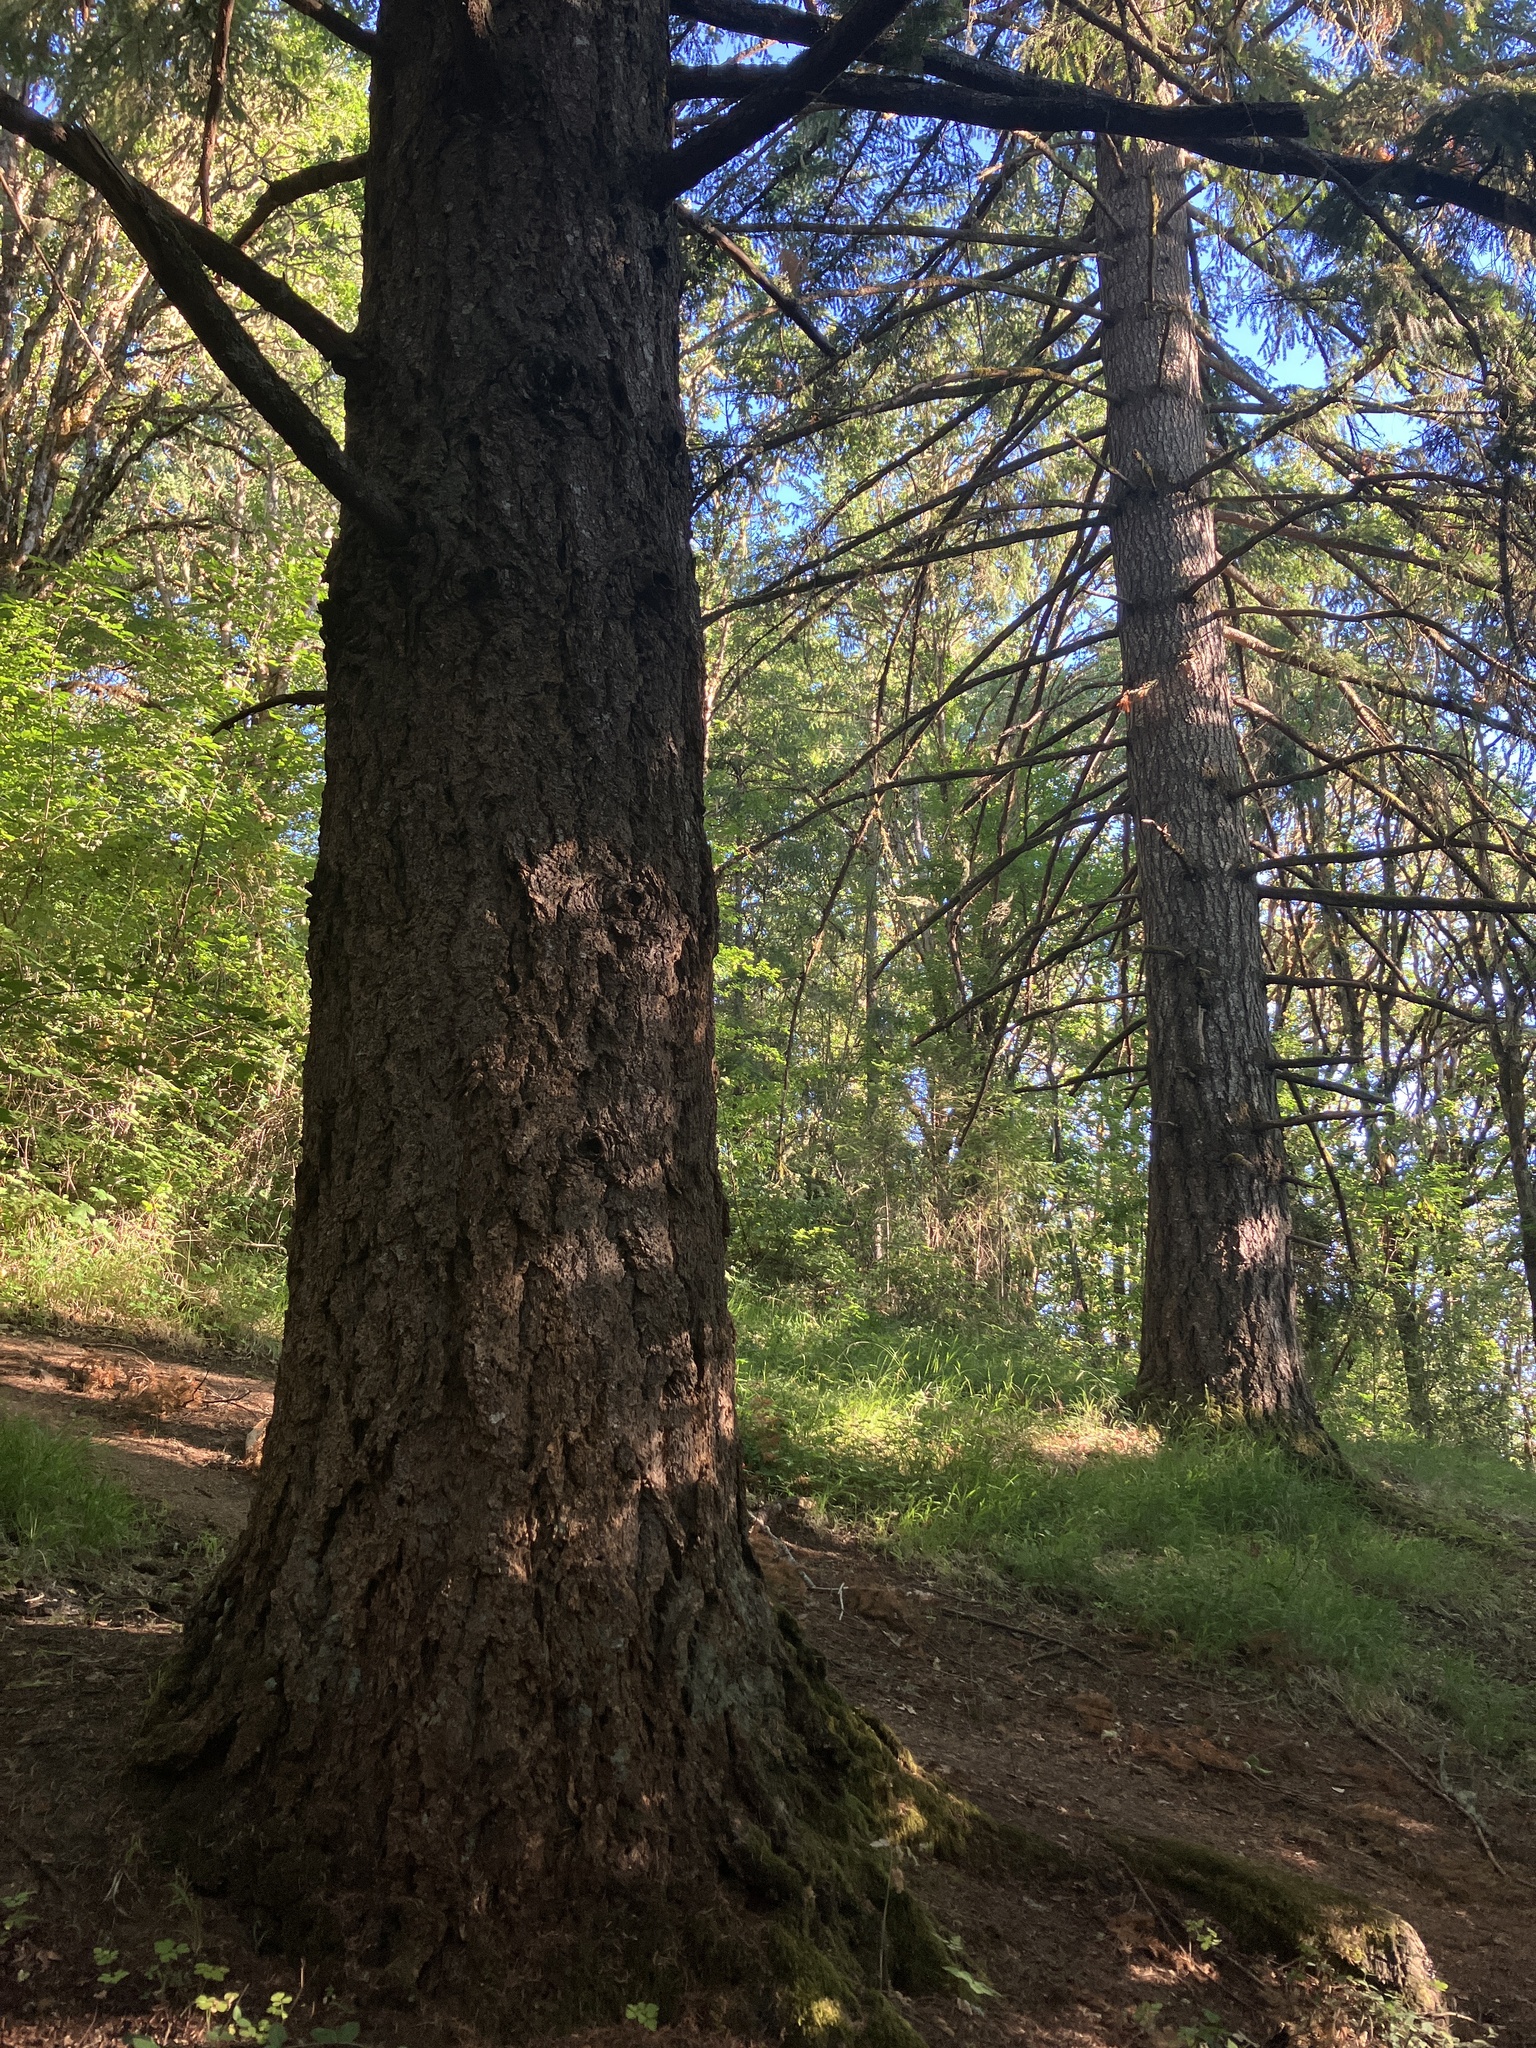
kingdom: Plantae
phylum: Tracheophyta
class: Pinopsida
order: Pinales
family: Pinaceae
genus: Pseudotsuga
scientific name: Pseudotsuga menziesii
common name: Douglas fir
